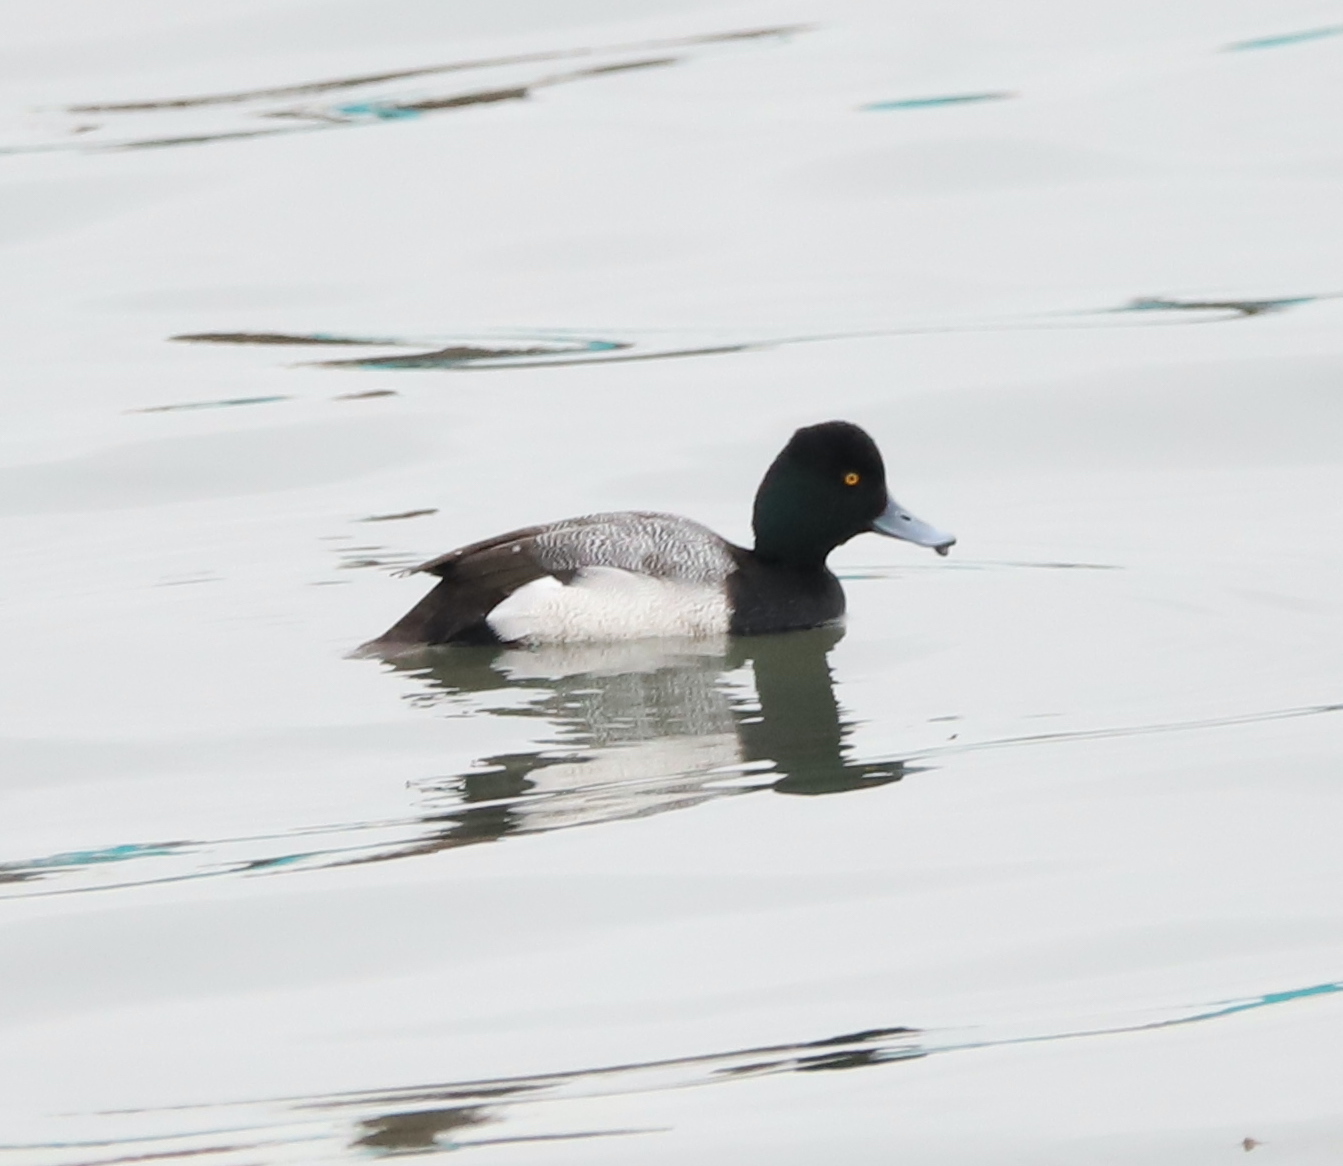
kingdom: Animalia
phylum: Chordata
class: Aves
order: Anseriformes
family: Anatidae
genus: Aythya
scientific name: Aythya affinis
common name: Lesser scaup
